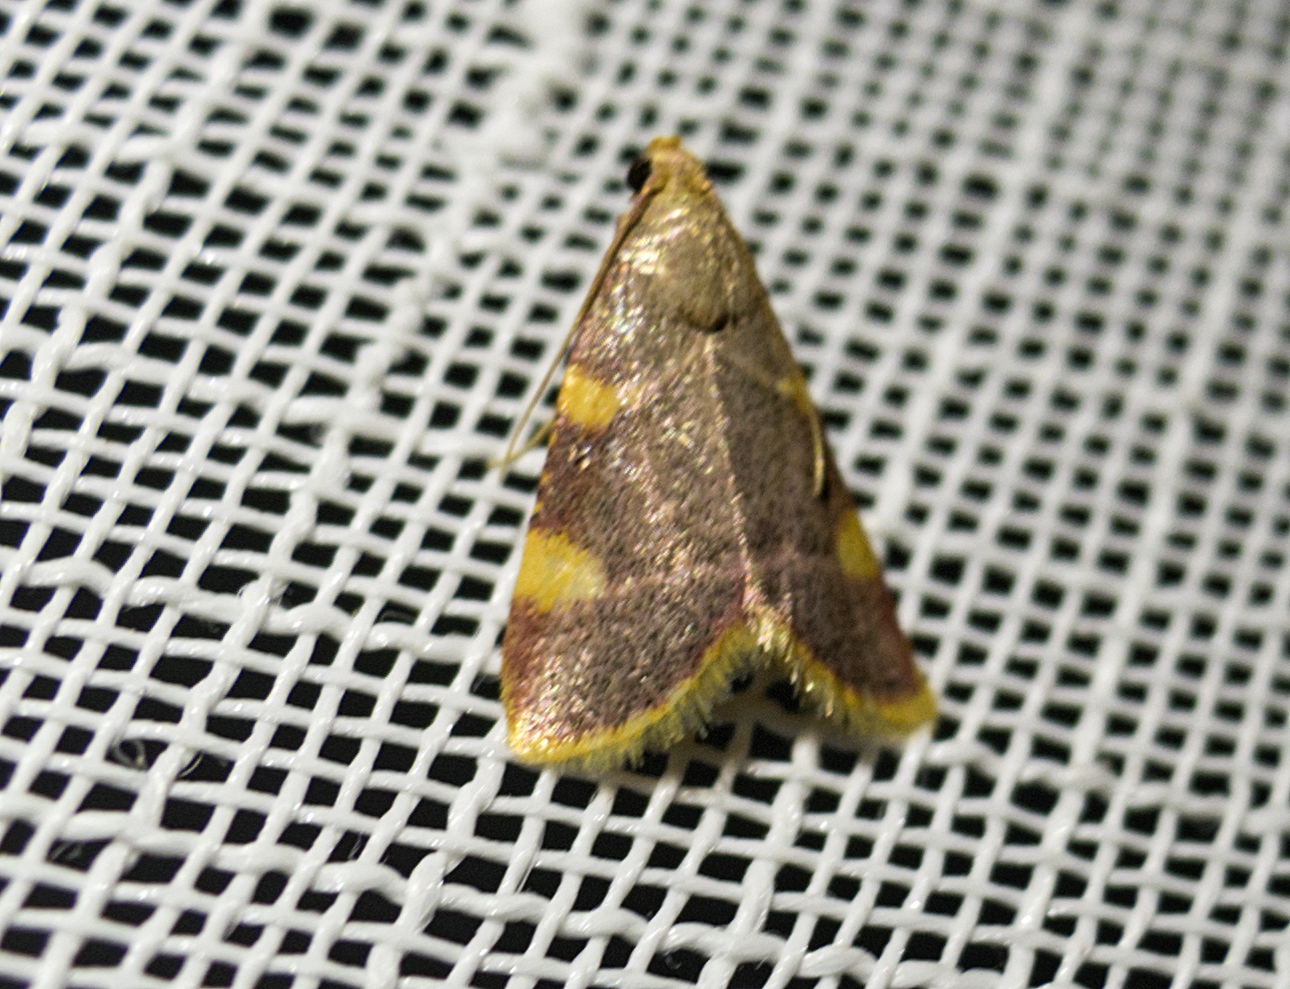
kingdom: Animalia
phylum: Arthropoda
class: Insecta
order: Lepidoptera
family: Pyralidae
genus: Hypsopygia
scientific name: Hypsopygia costalis
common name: Gold triangle
